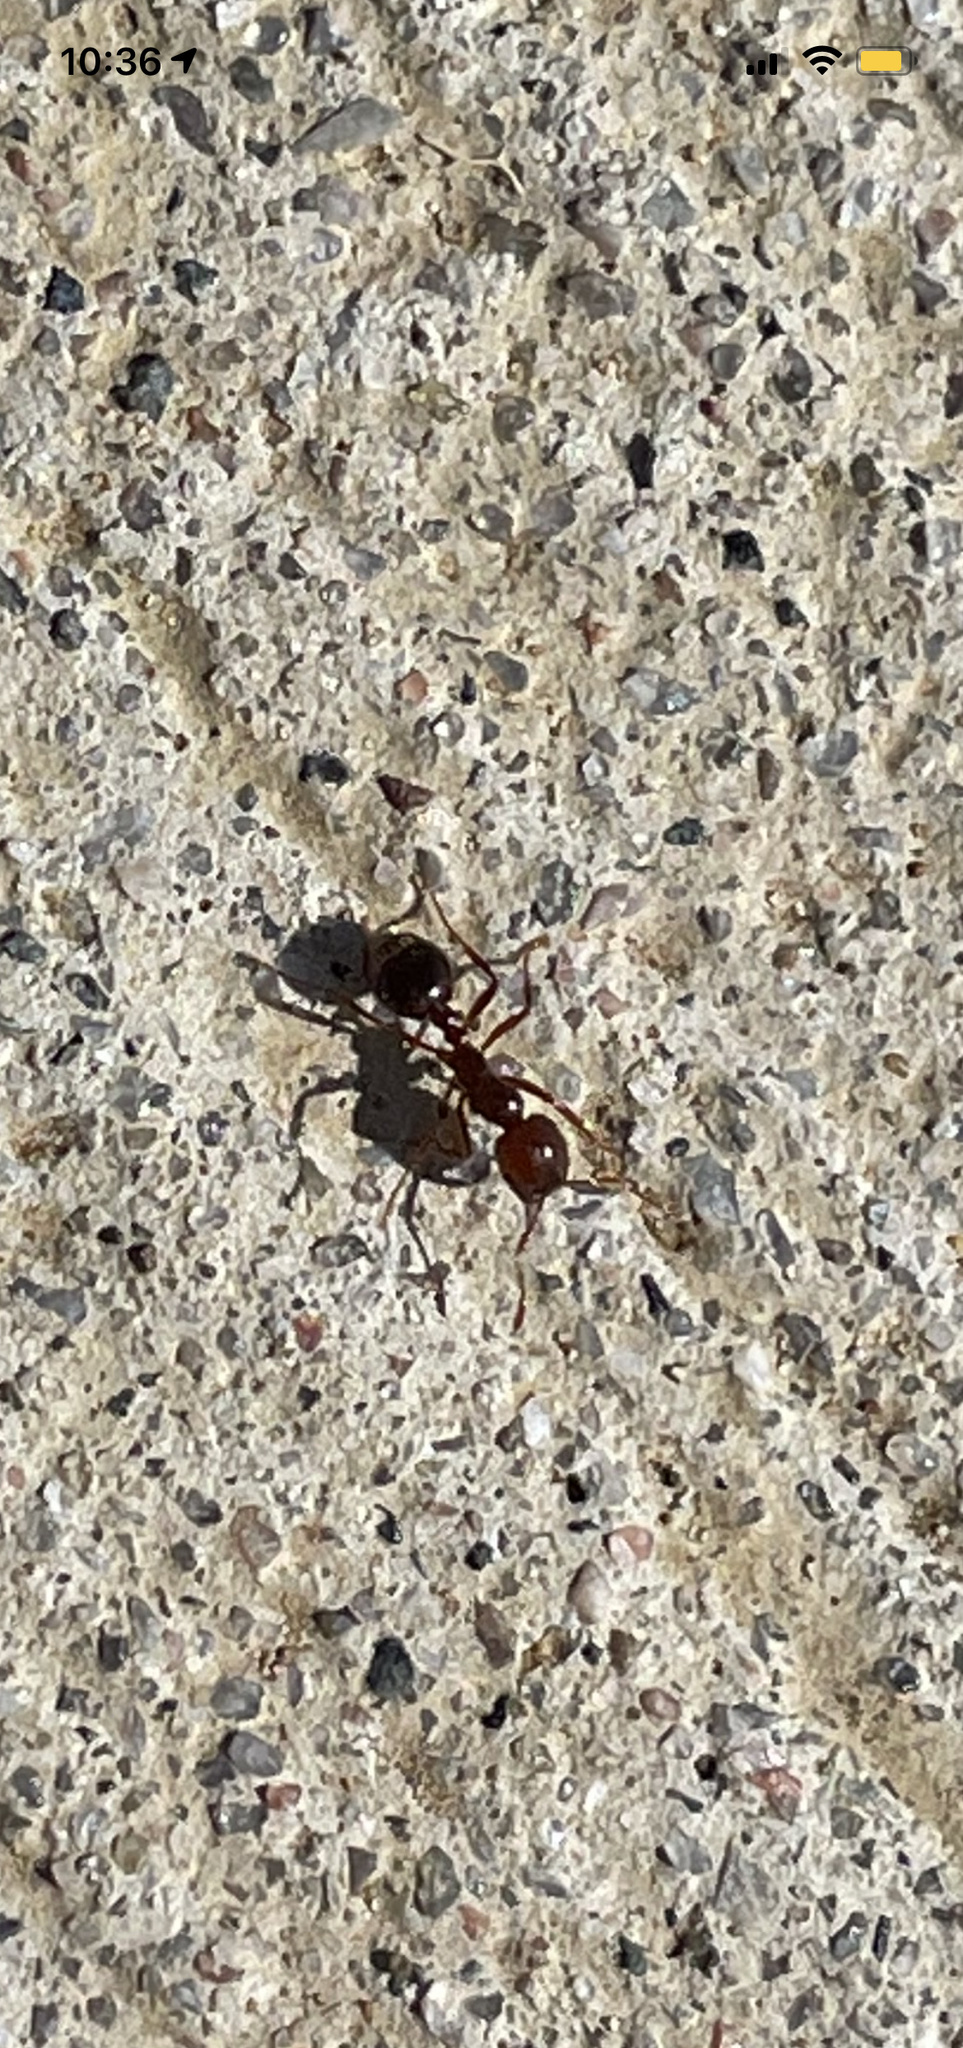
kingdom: Animalia
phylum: Arthropoda
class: Insecta
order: Hymenoptera
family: Formicidae
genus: Solenopsis
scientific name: Solenopsis invicta
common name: Red imported fire ant
